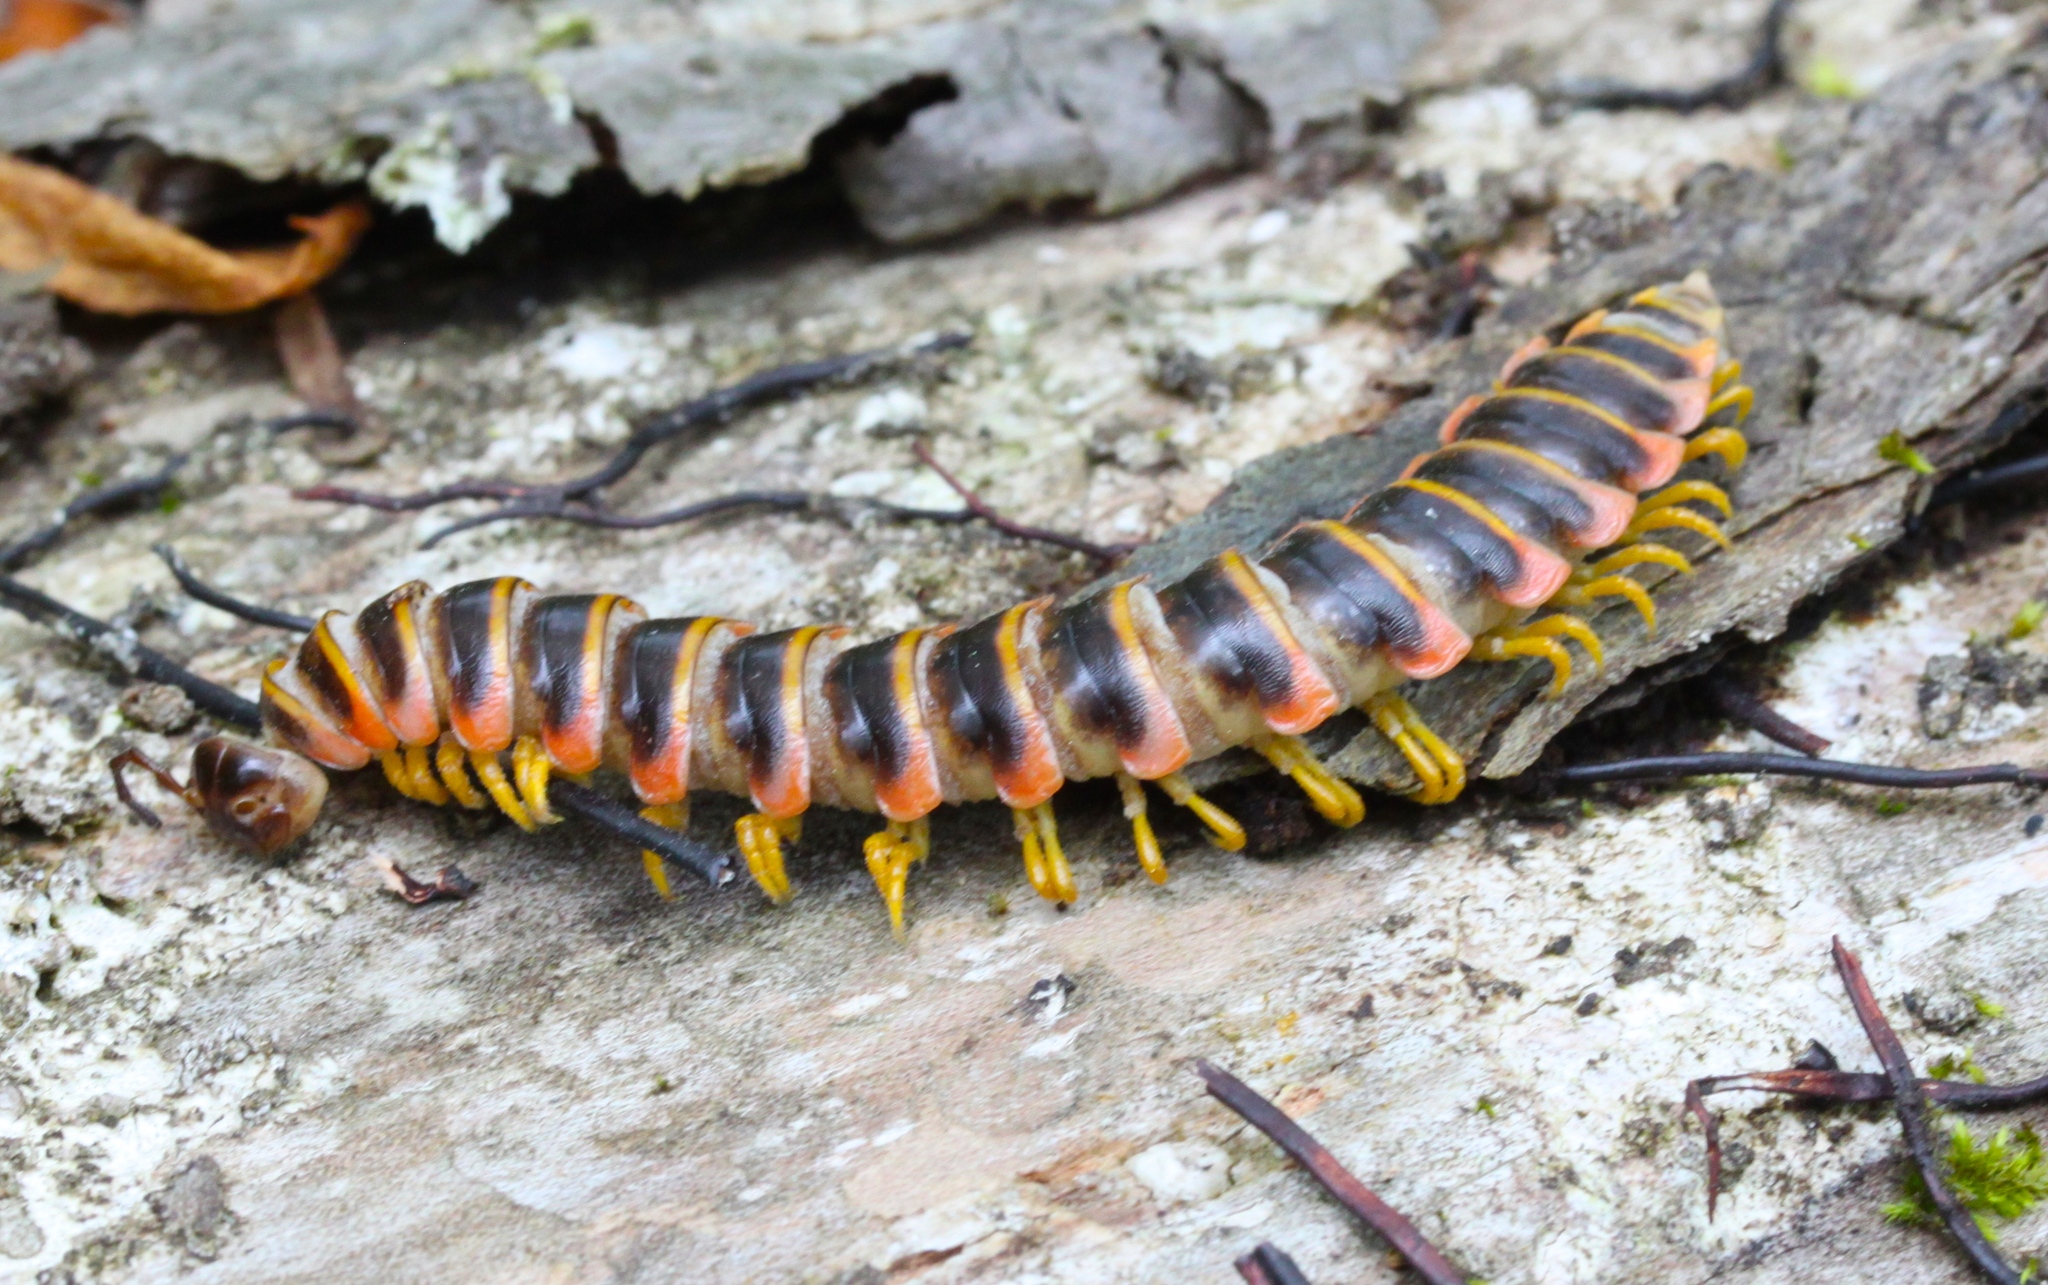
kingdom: Animalia
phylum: Arthropoda
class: Diplopoda
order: Polydesmida
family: Xystodesmidae
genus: Apheloria
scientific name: Apheloria virginiensis
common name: Black-and-gold flat millipede
